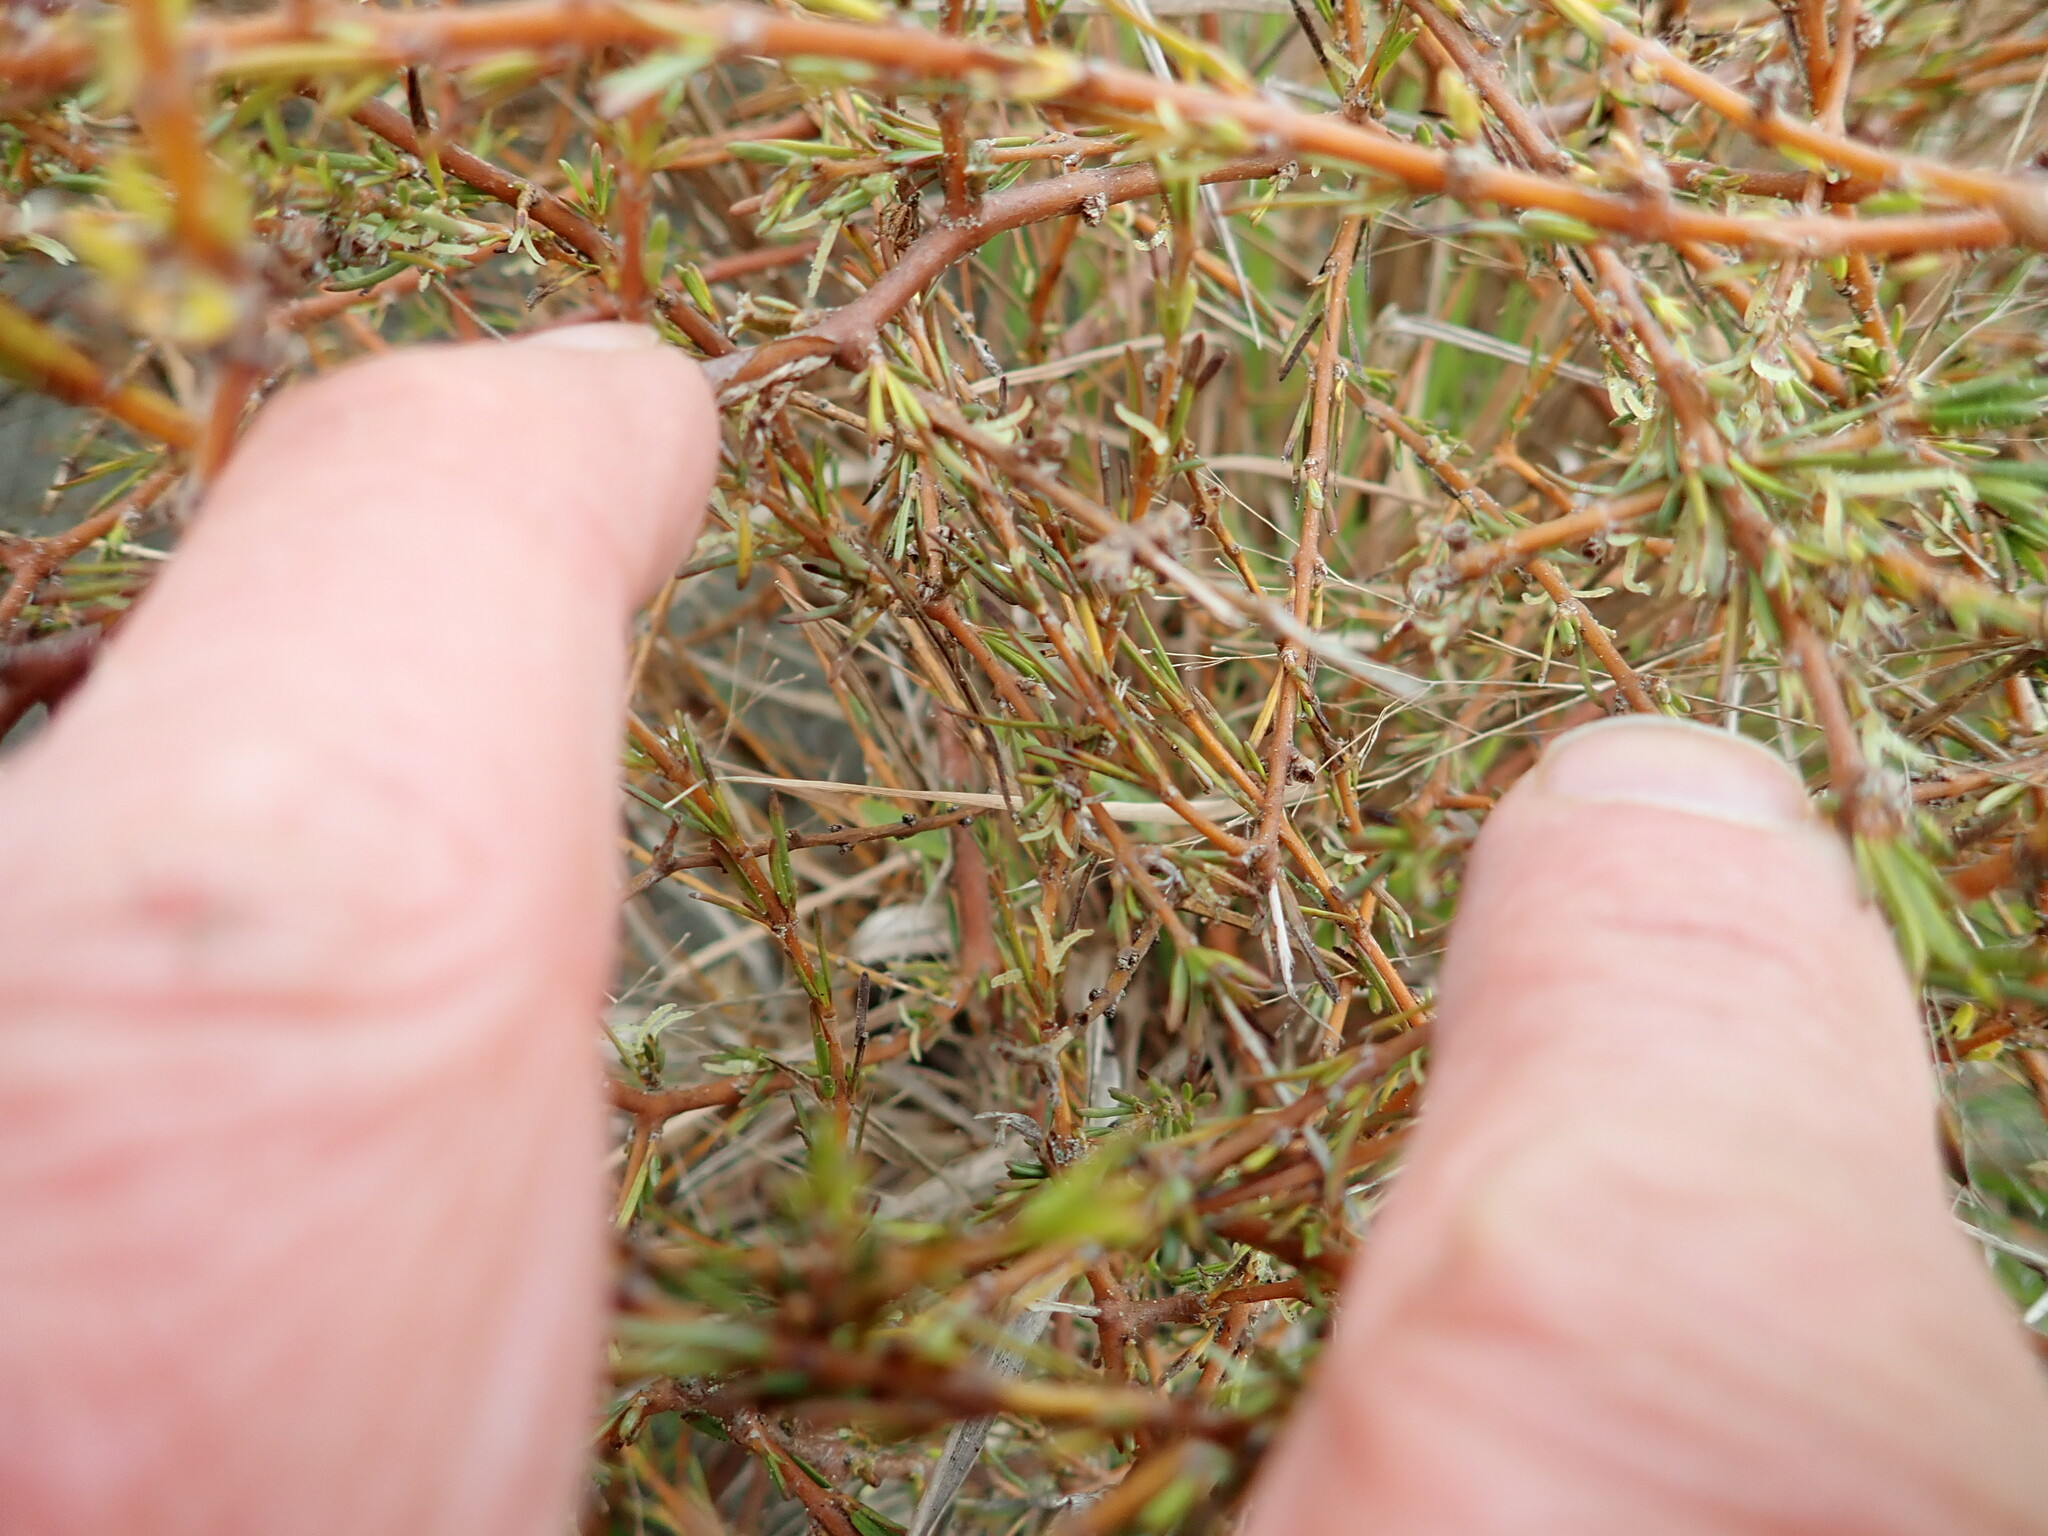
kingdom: Plantae
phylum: Tracheophyta
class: Magnoliopsida
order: Gentianales
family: Rubiaceae
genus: Coprosma
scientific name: Coprosma acerosa
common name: Sand coprosma
